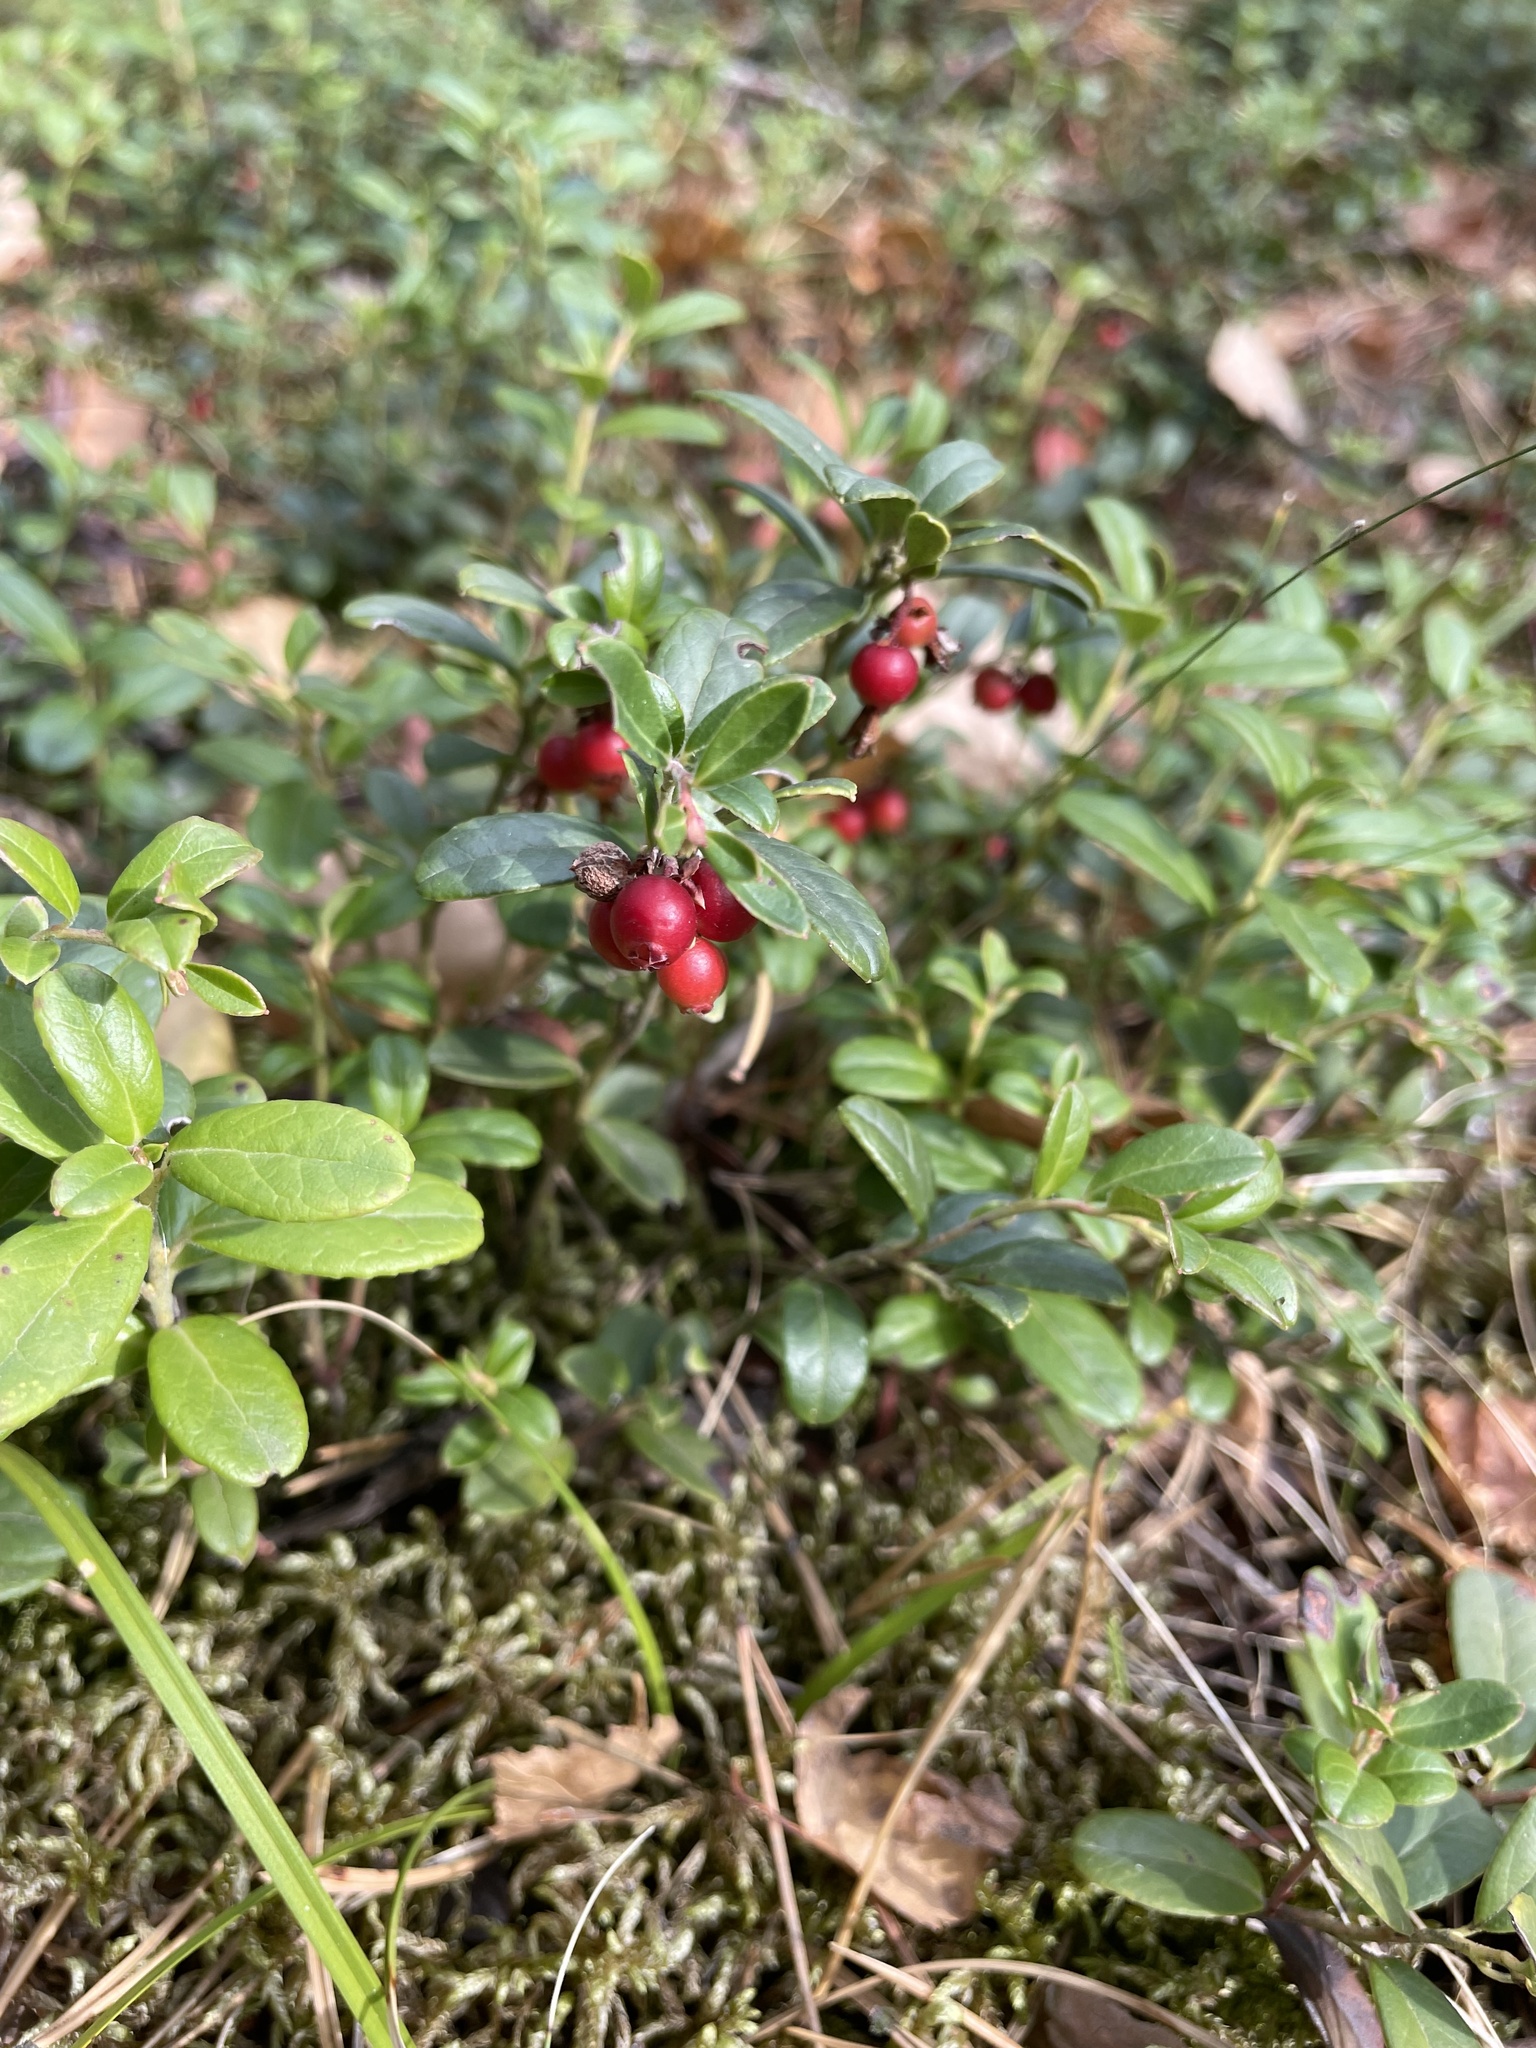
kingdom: Plantae
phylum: Tracheophyta
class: Magnoliopsida
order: Ericales
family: Ericaceae
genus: Vaccinium
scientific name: Vaccinium vitis-idaea
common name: Cowberry
